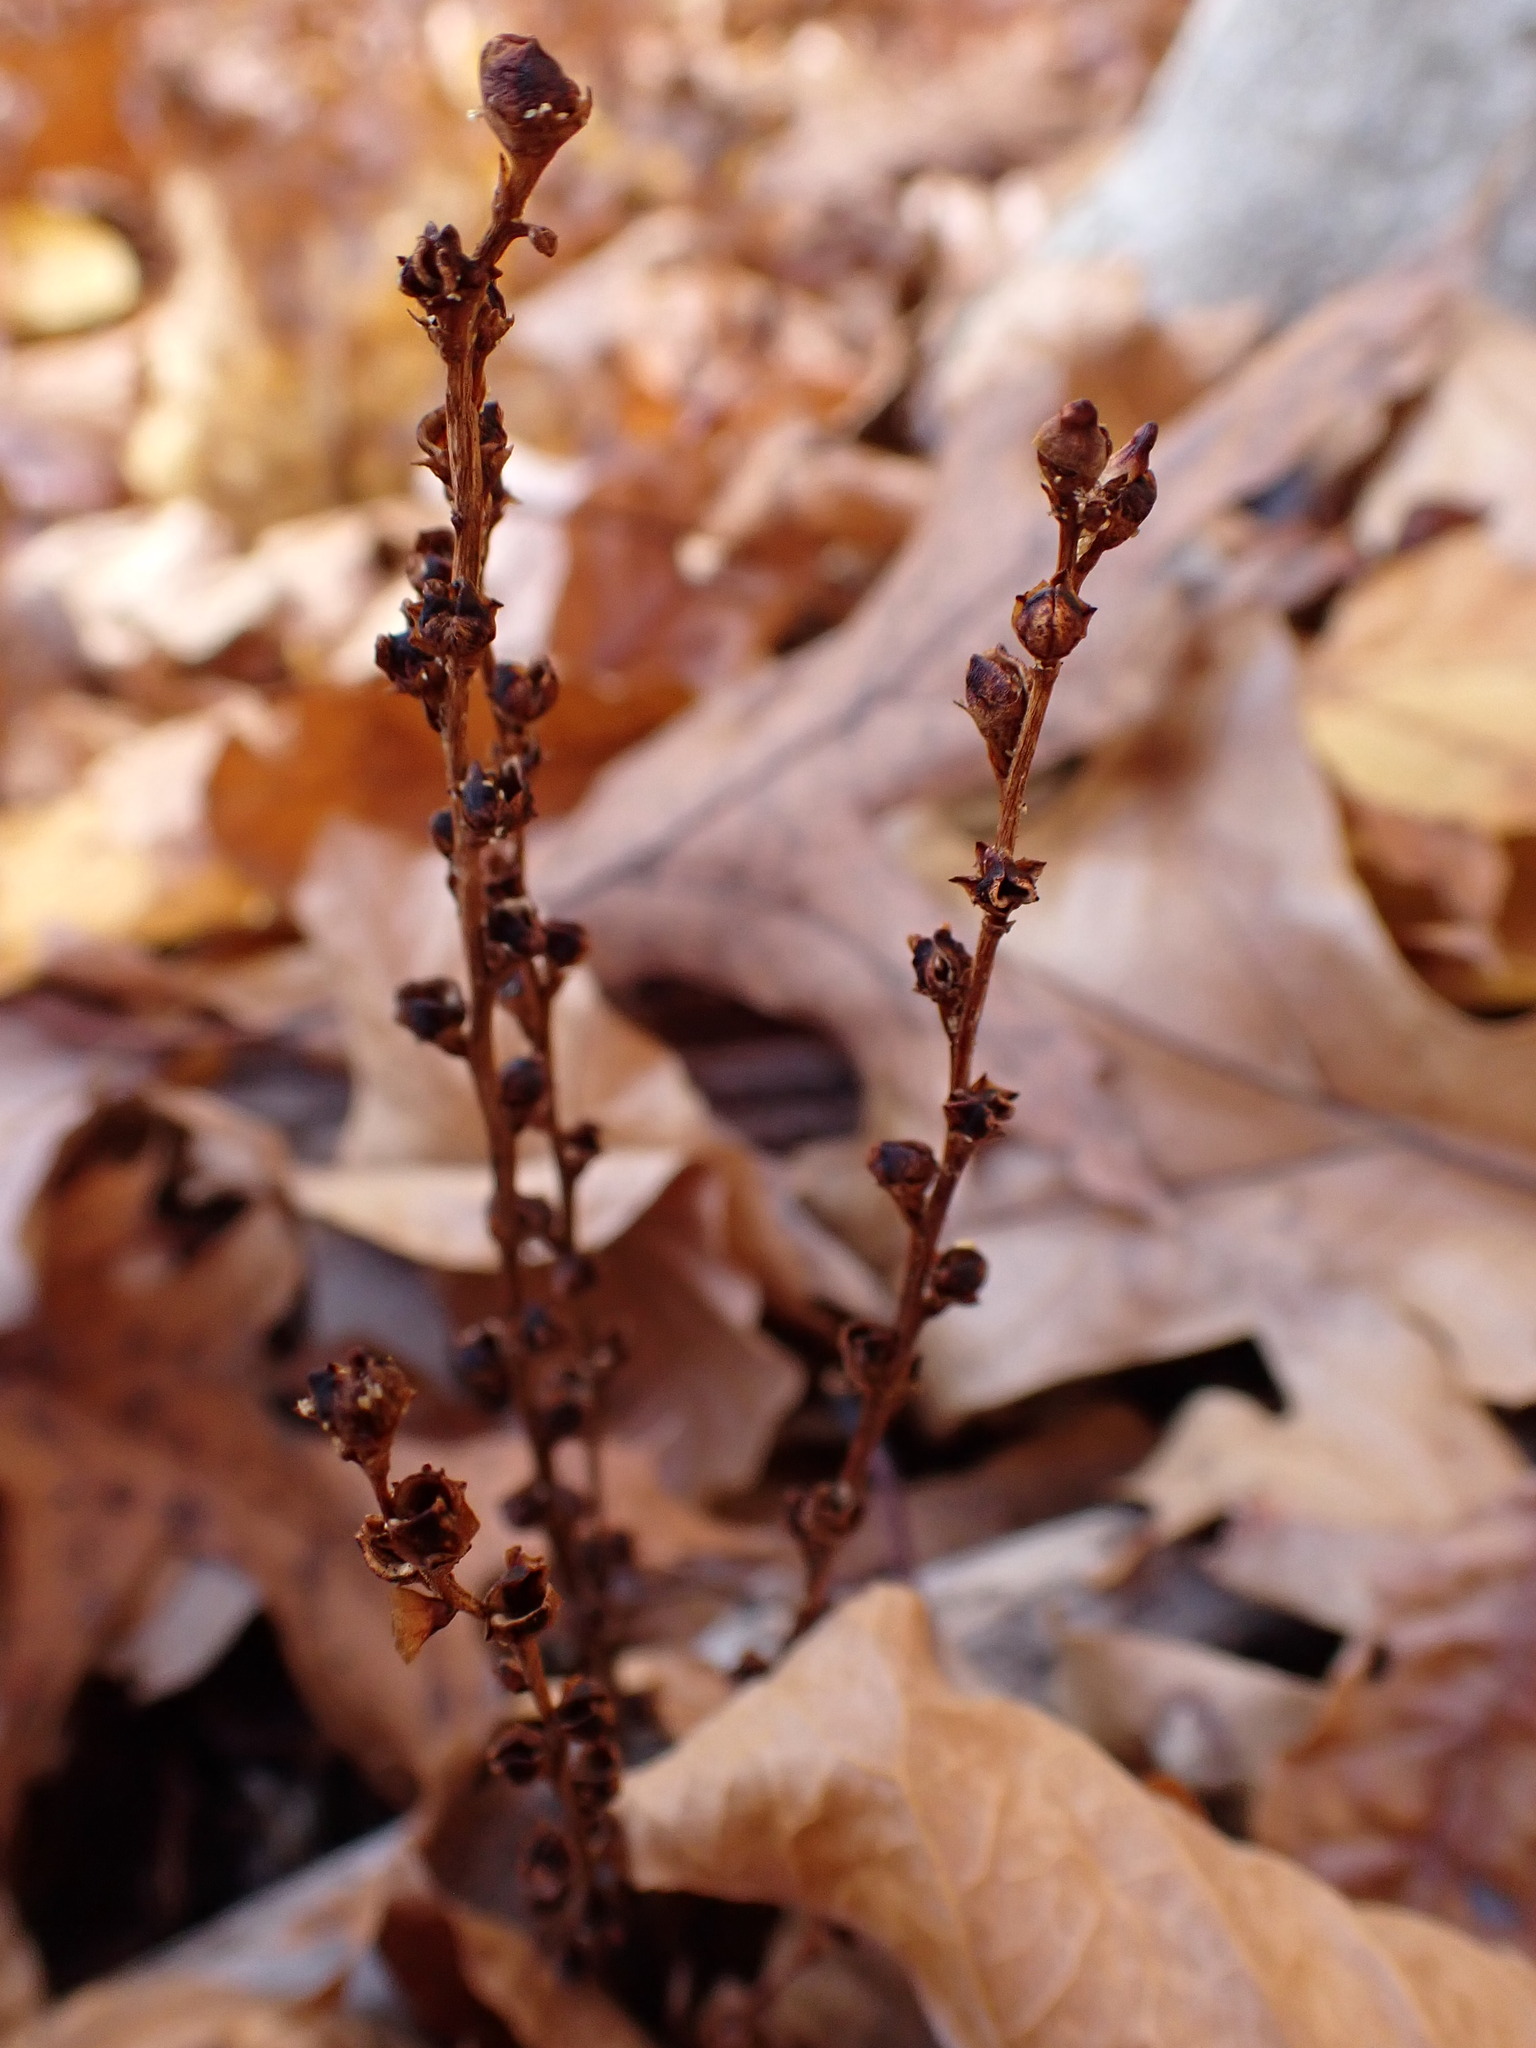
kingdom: Plantae
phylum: Tracheophyta
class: Magnoliopsida
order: Lamiales
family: Orobanchaceae
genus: Epifagus
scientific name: Epifagus virginiana
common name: Beechdrops
